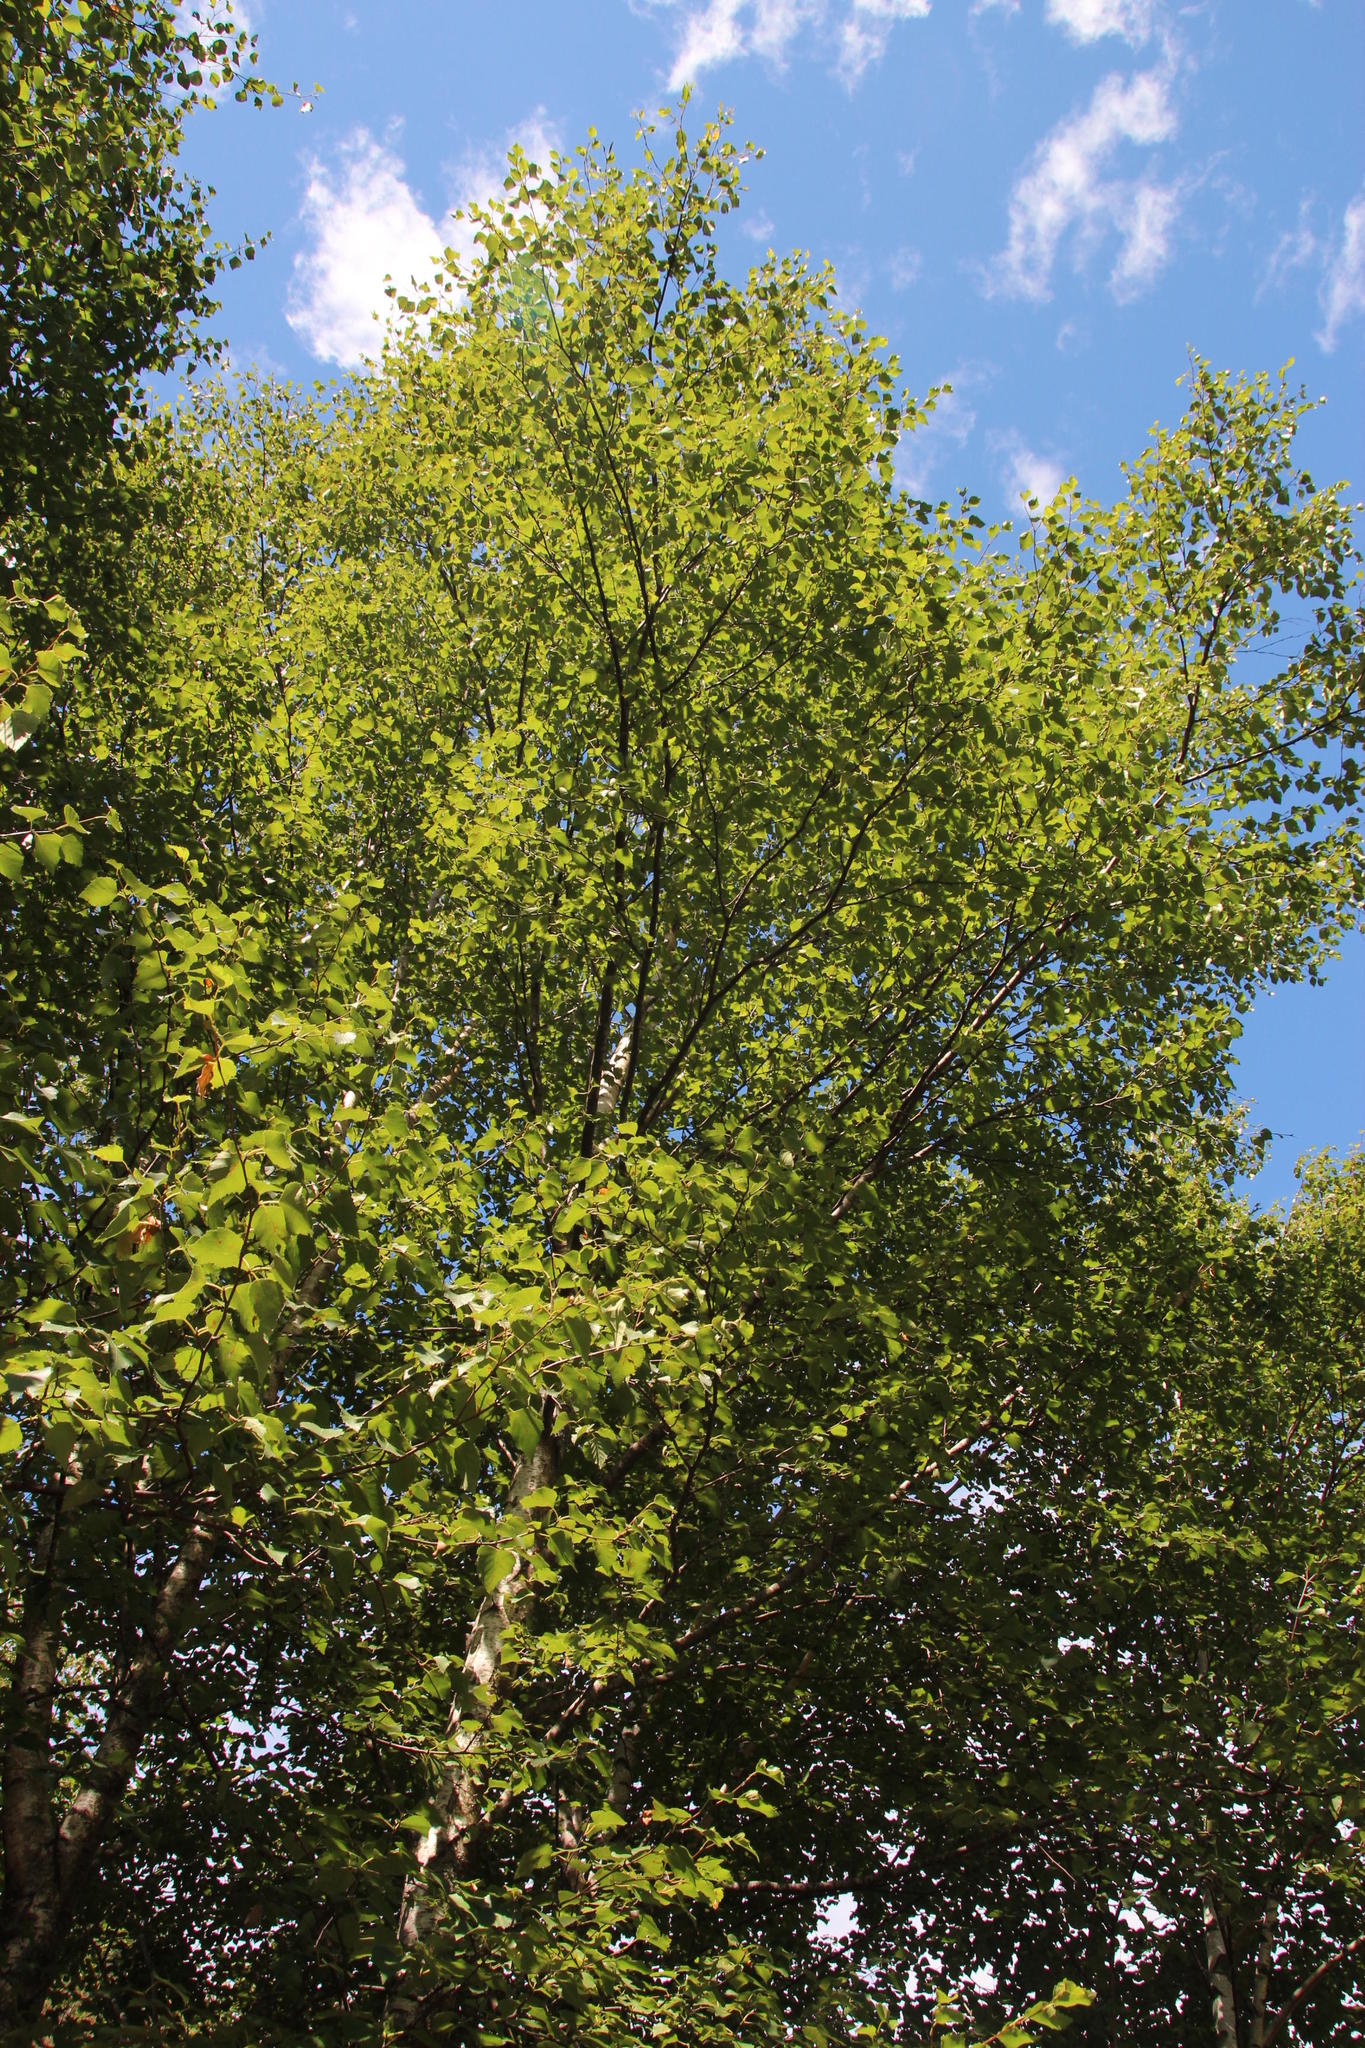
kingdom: Plantae
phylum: Tracheophyta
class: Magnoliopsida
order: Fagales
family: Betulaceae
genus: Betula
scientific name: Betula pubescens
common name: Downy birch
